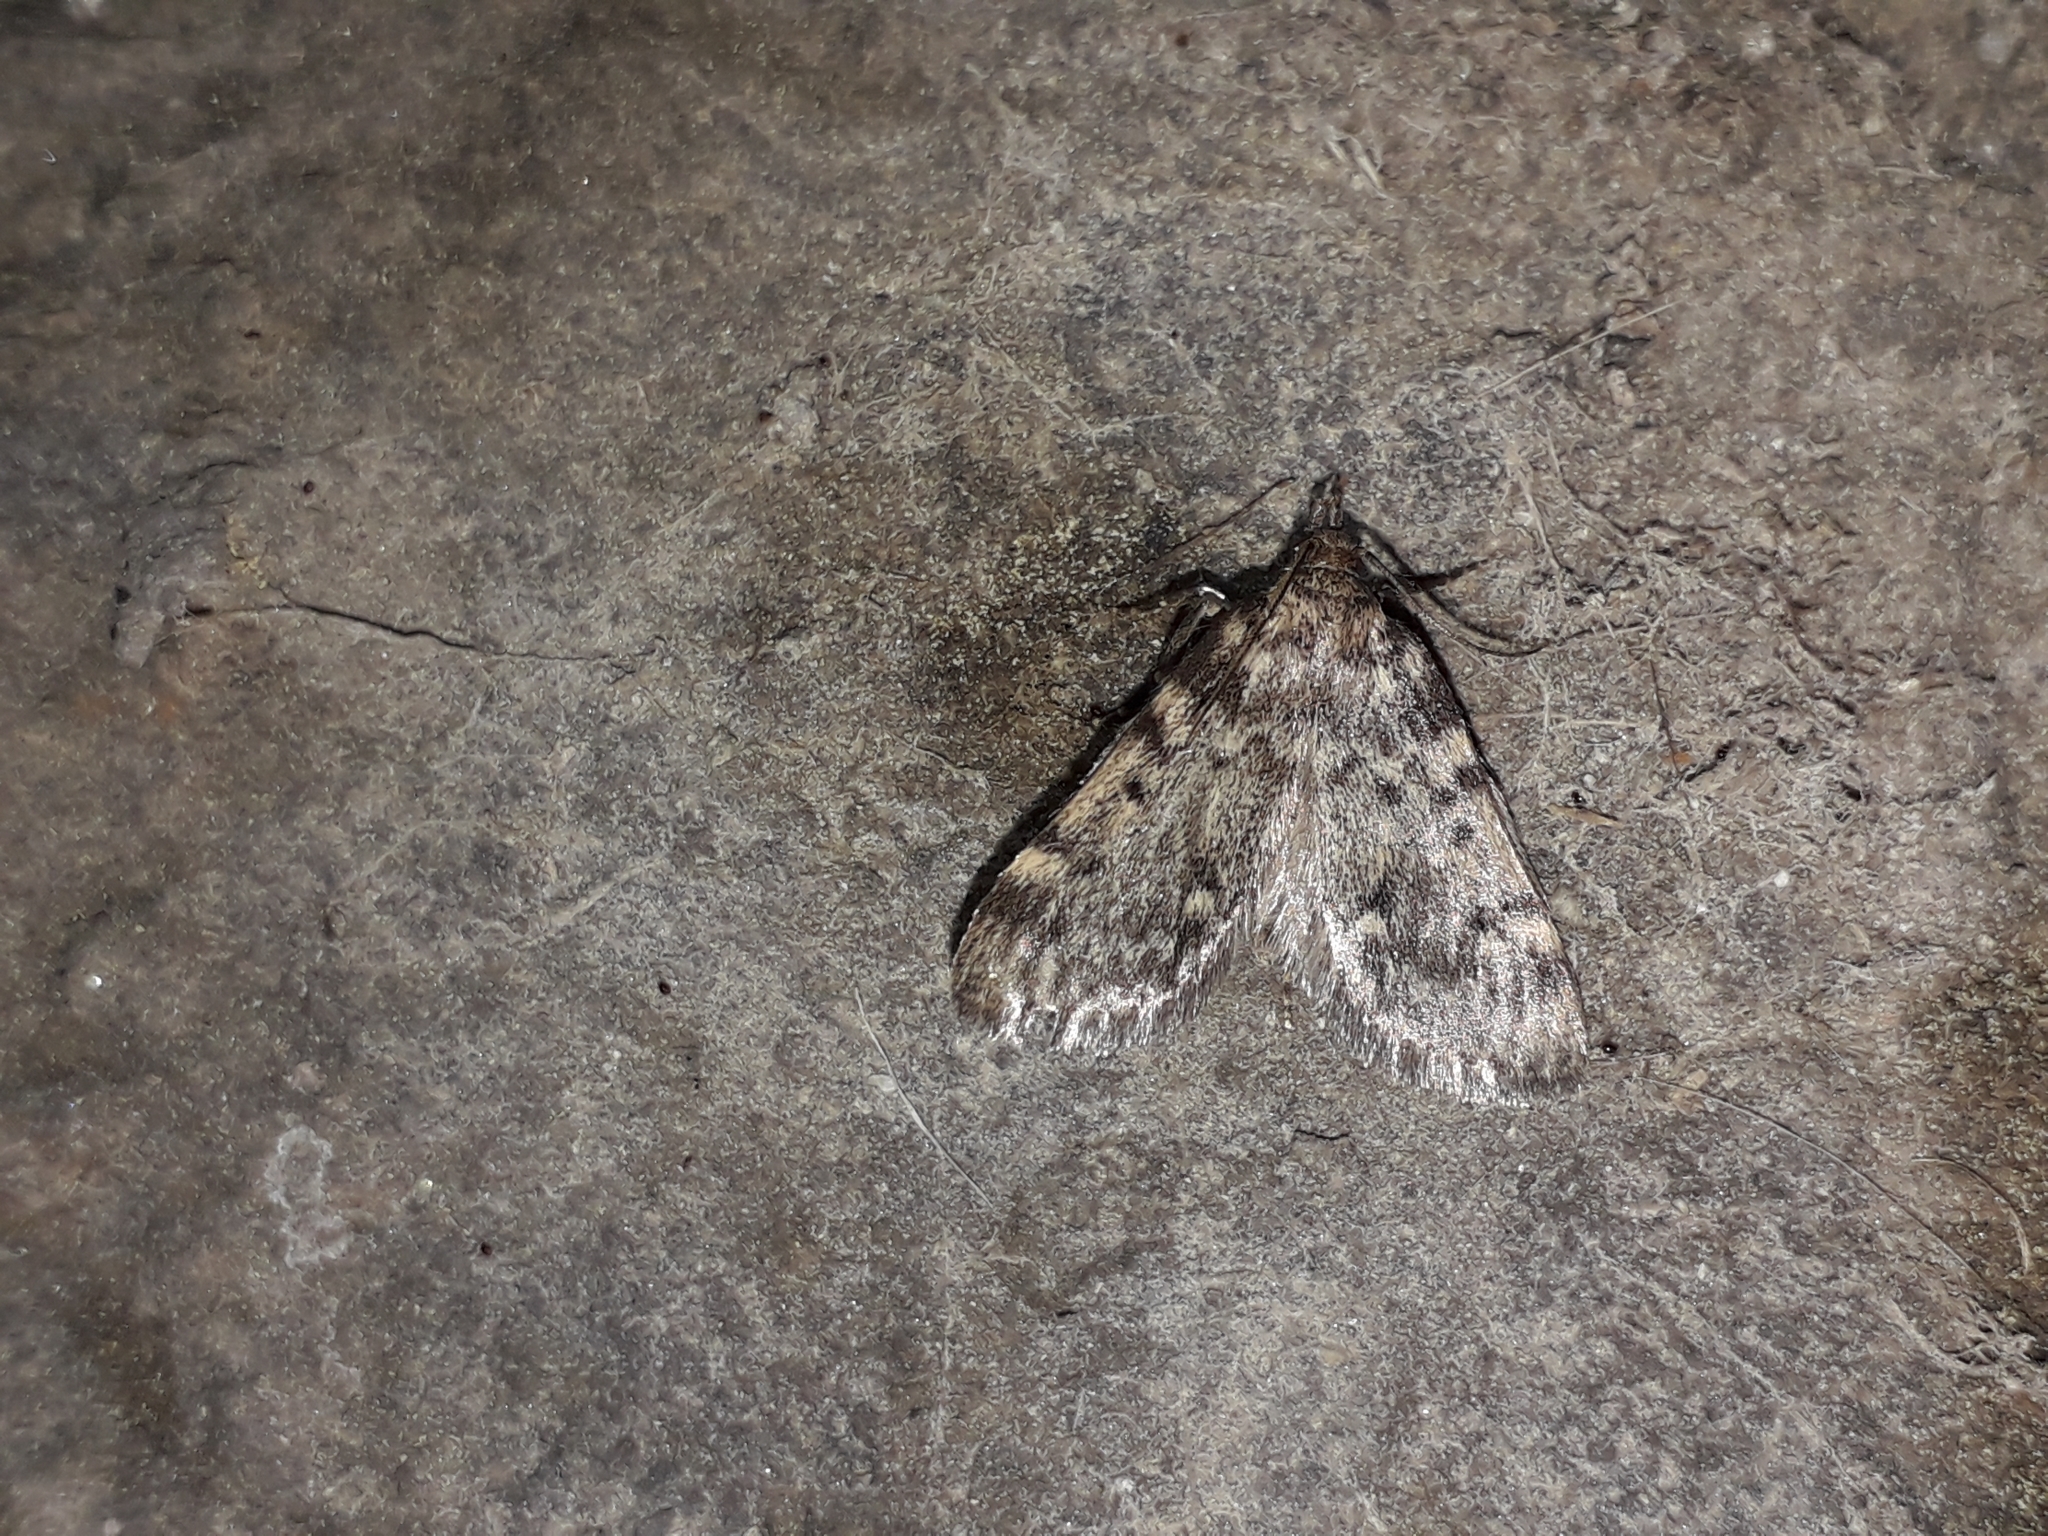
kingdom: Animalia
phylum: Arthropoda
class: Insecta
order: Lepidoptera
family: Pyralidae
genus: Aglossa
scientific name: Aglossa pinguinalis
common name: Large tabby
